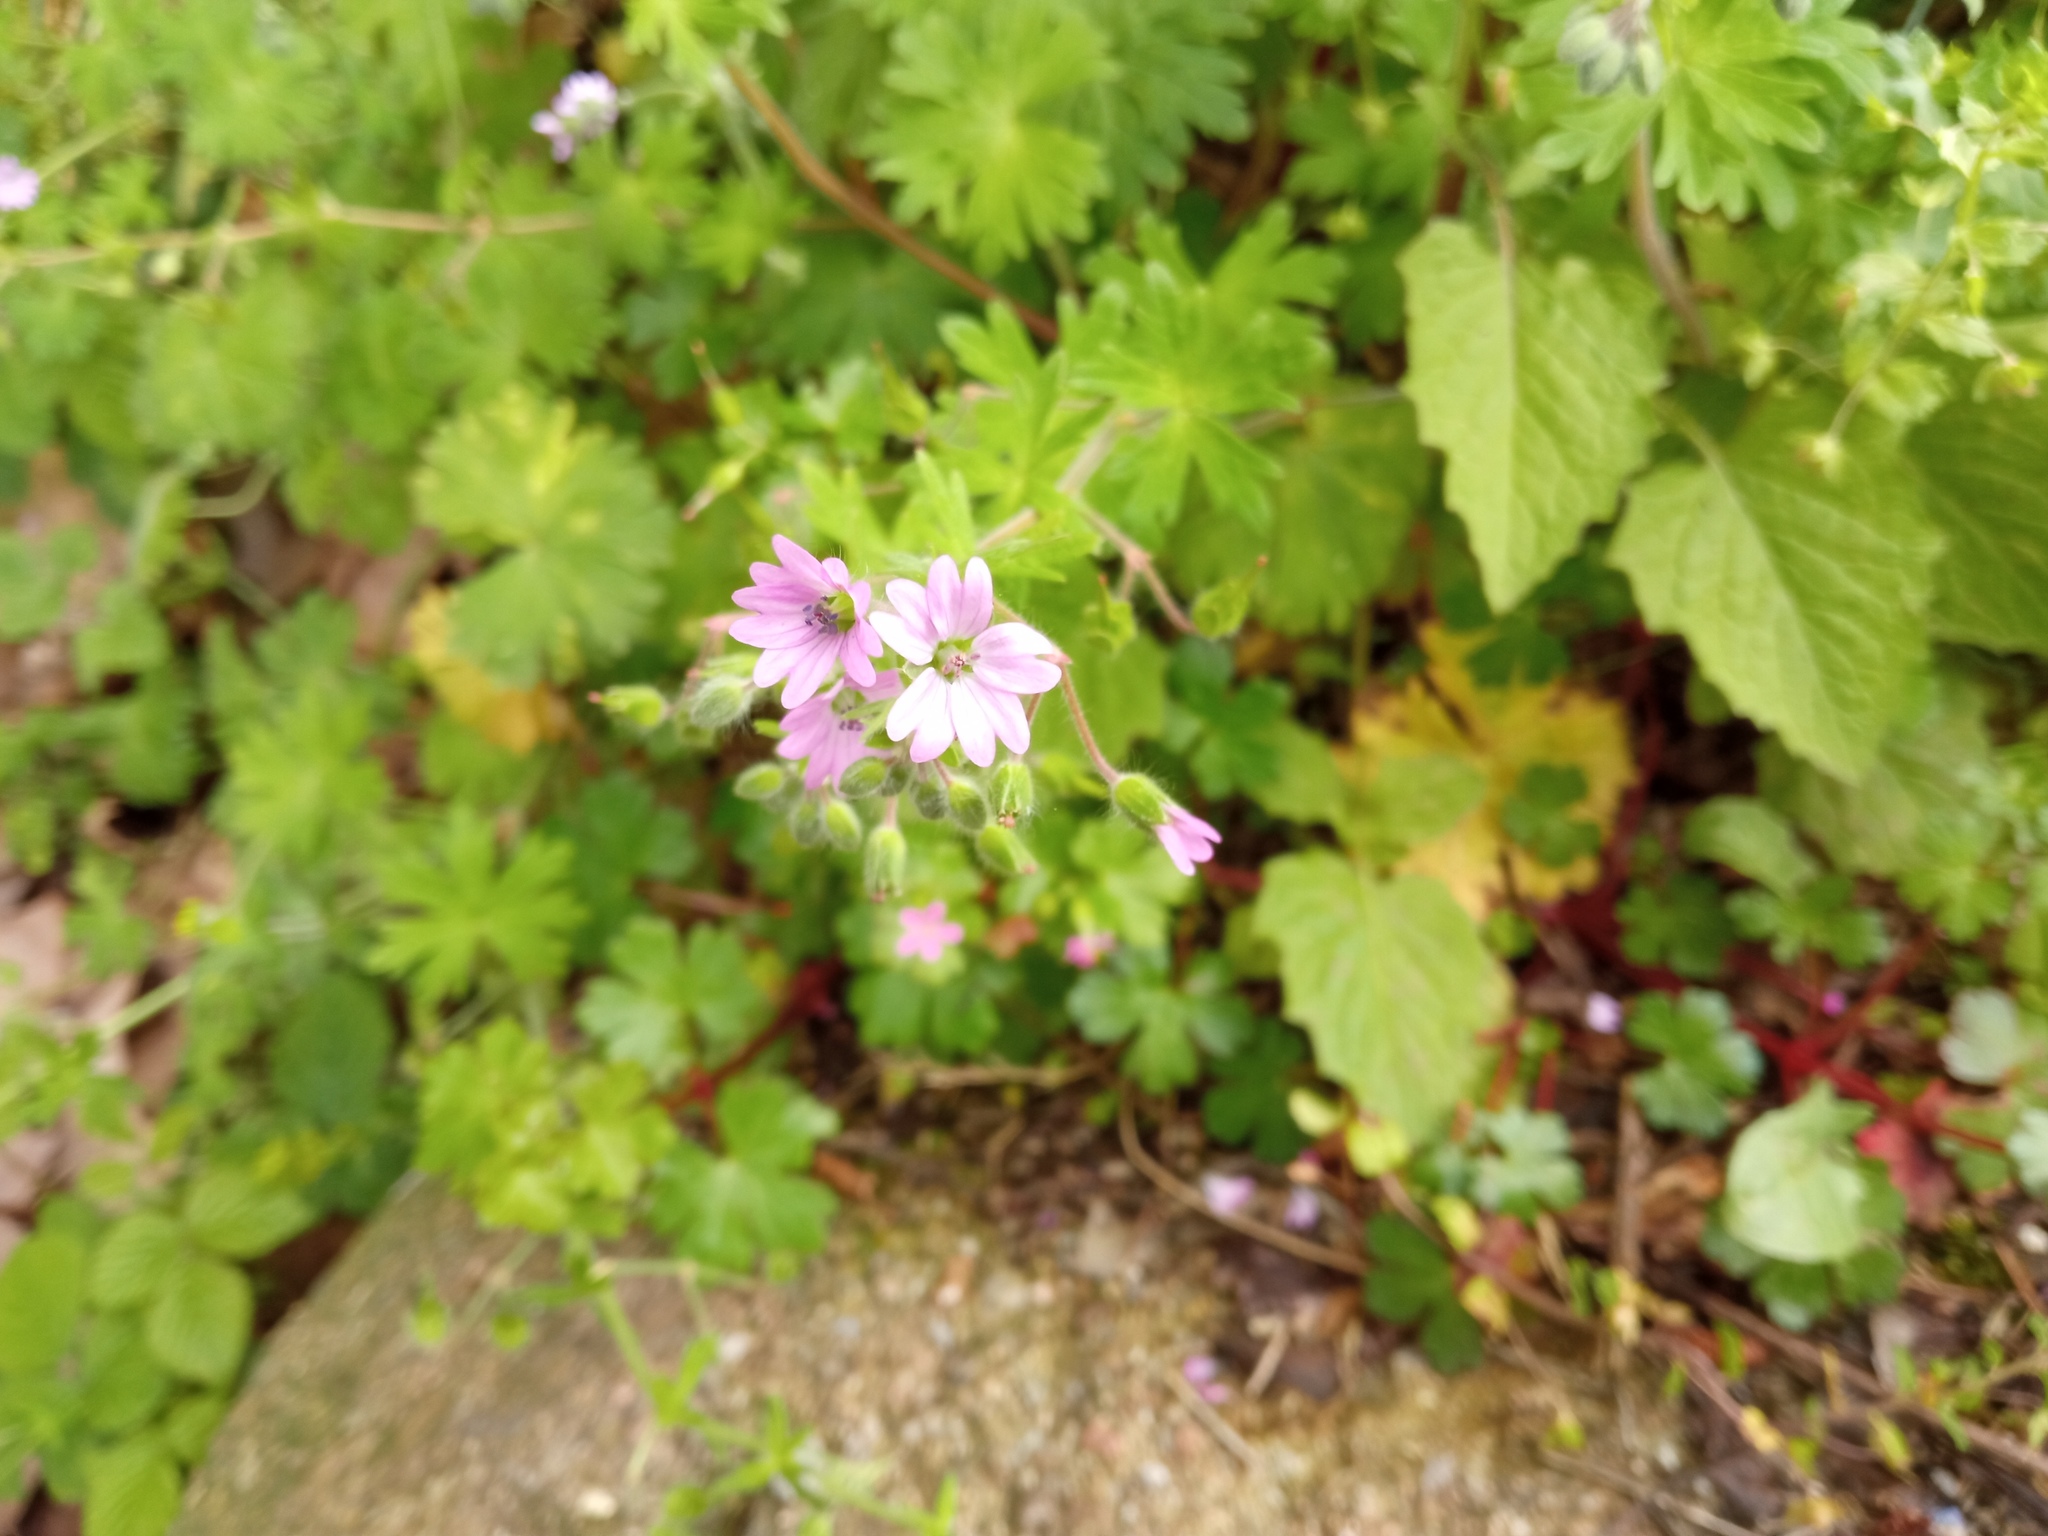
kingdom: Plantae
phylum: Tracheophyta
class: Magnoliopsida
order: Geraniales
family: Geraniaceae
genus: Geranium
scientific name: Geranium molle
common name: Dove's-foot crane's-bill
